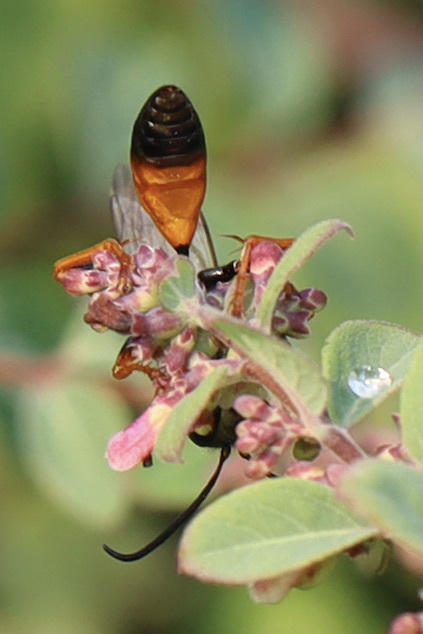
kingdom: Animalia
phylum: Arthropoda
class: Insecta
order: Hymenoptera
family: Sphecidae
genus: Sphex
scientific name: Sphex ichneumoneus
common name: Great golden digger wasp
